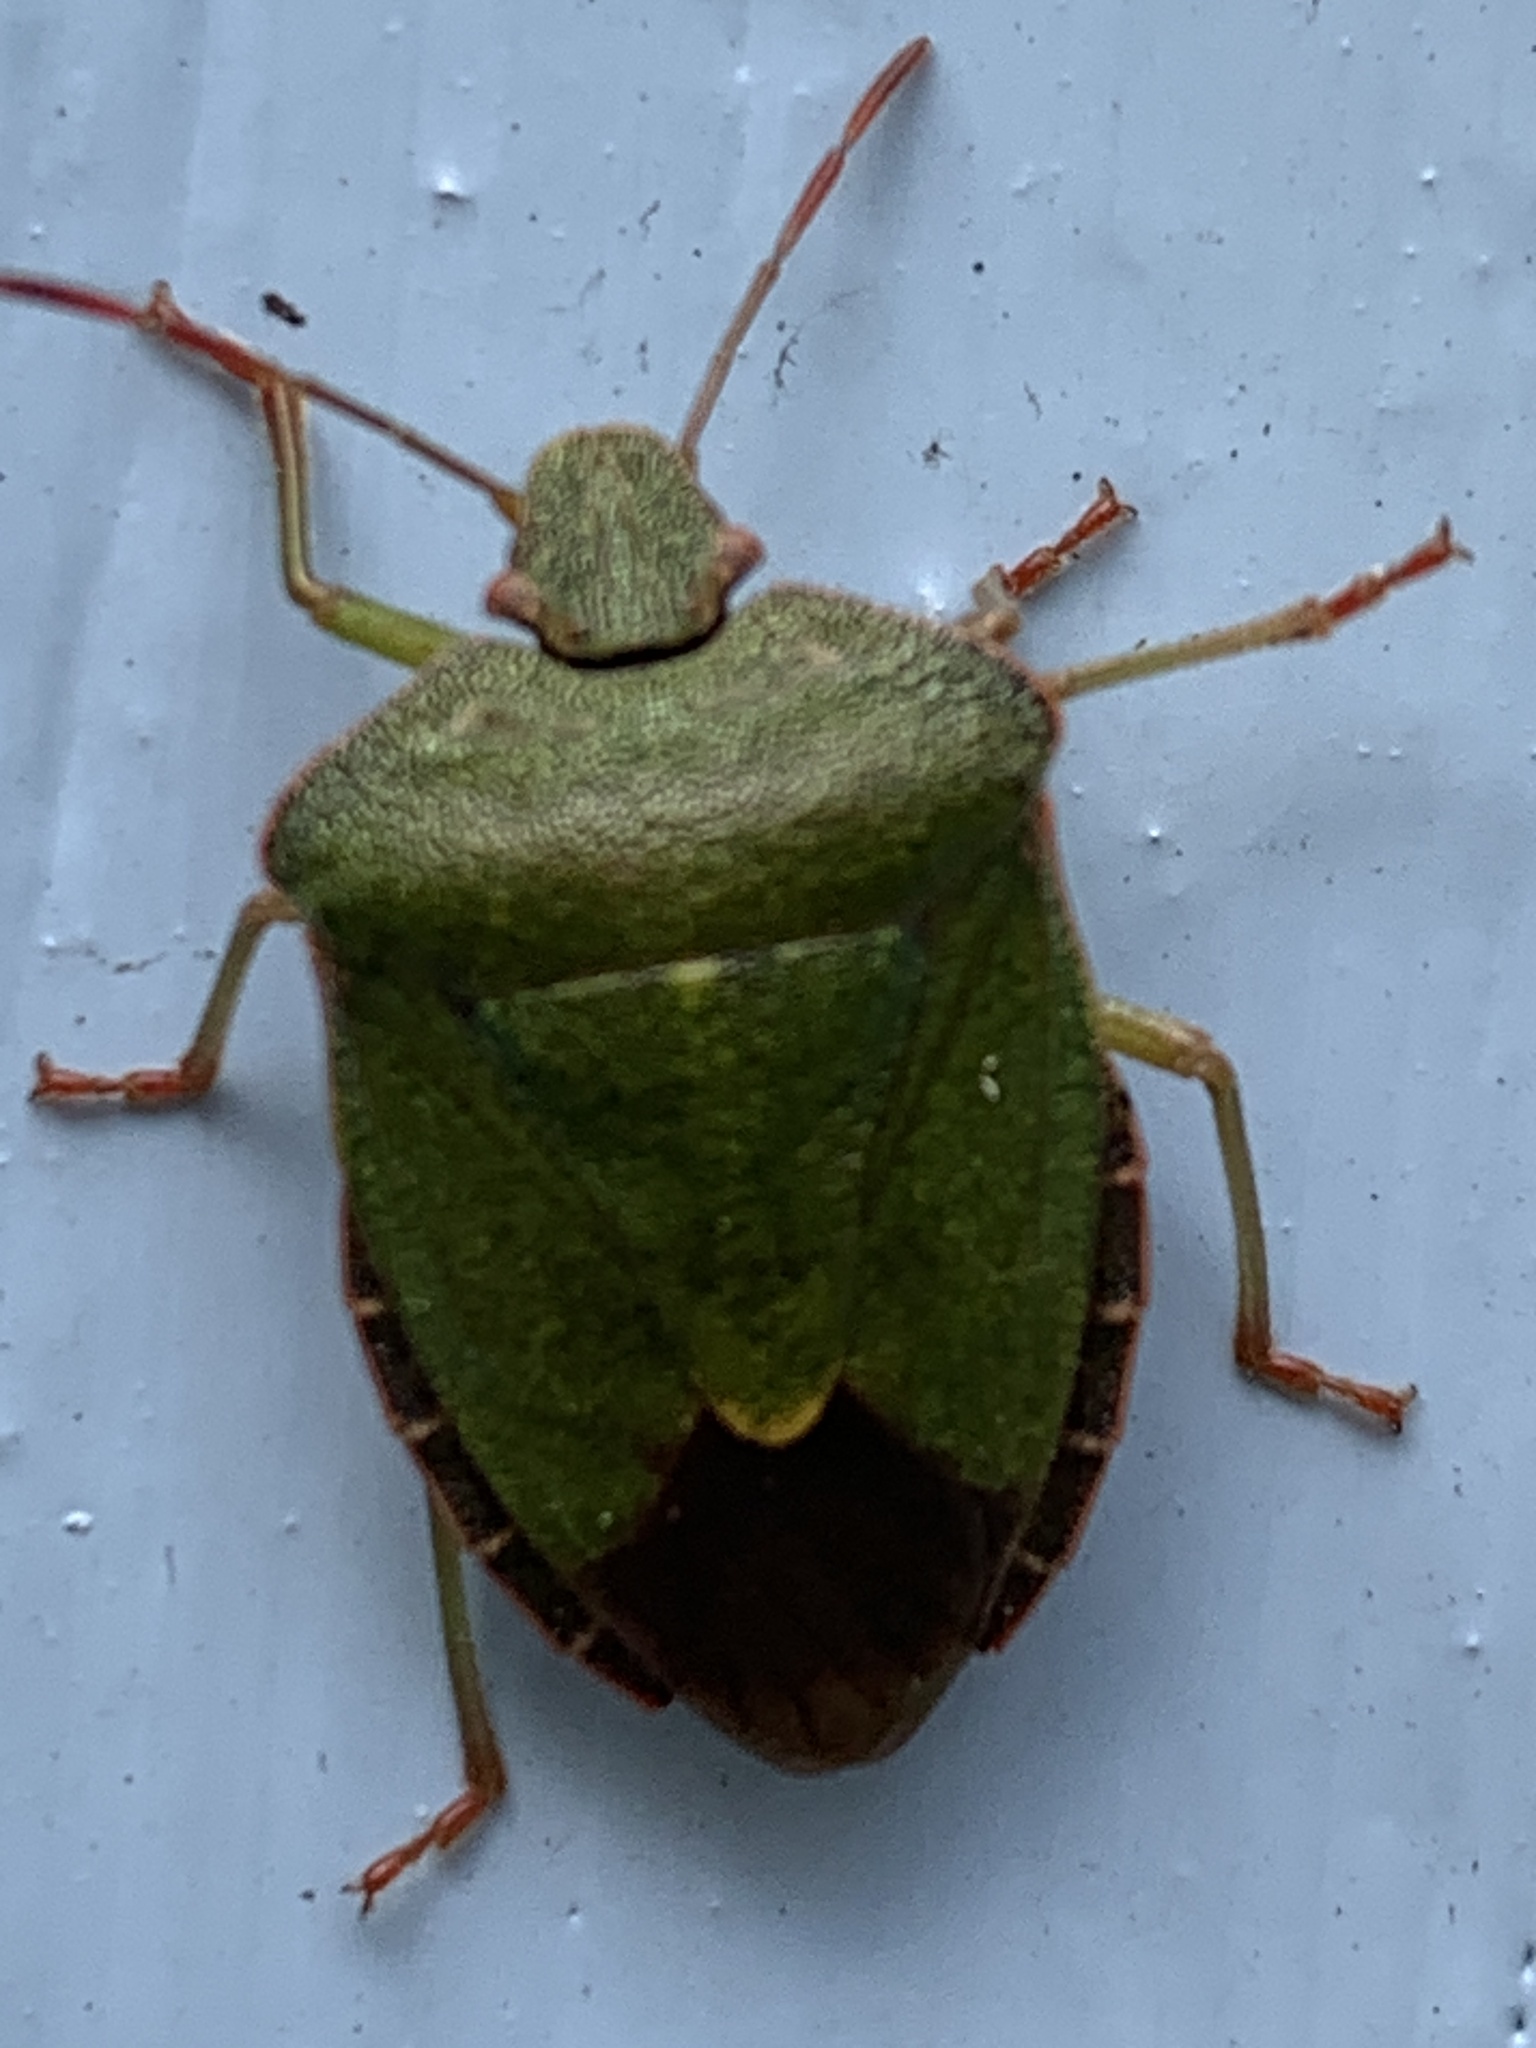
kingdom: Animalia
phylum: Arthropoda
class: Insecta
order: Hemiptera
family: Pentatomidae
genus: Palomena
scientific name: Palomena prasina
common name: Green shieldbug
